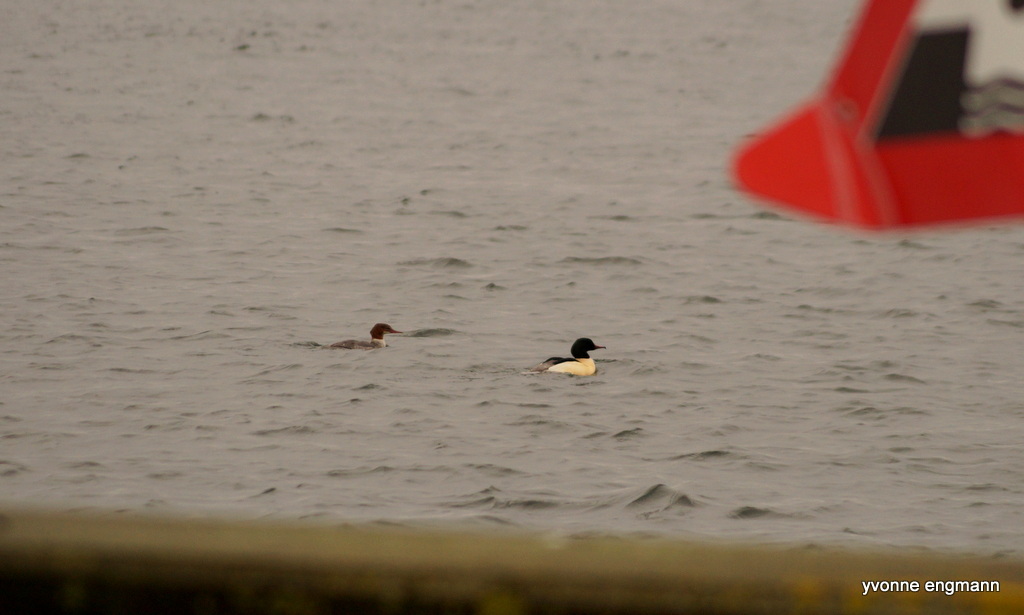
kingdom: Animalia
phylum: Chordata
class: Aves
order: Anseriformes
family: Anatidae
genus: Mergus
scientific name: Mergus merganser
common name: Common merganser
